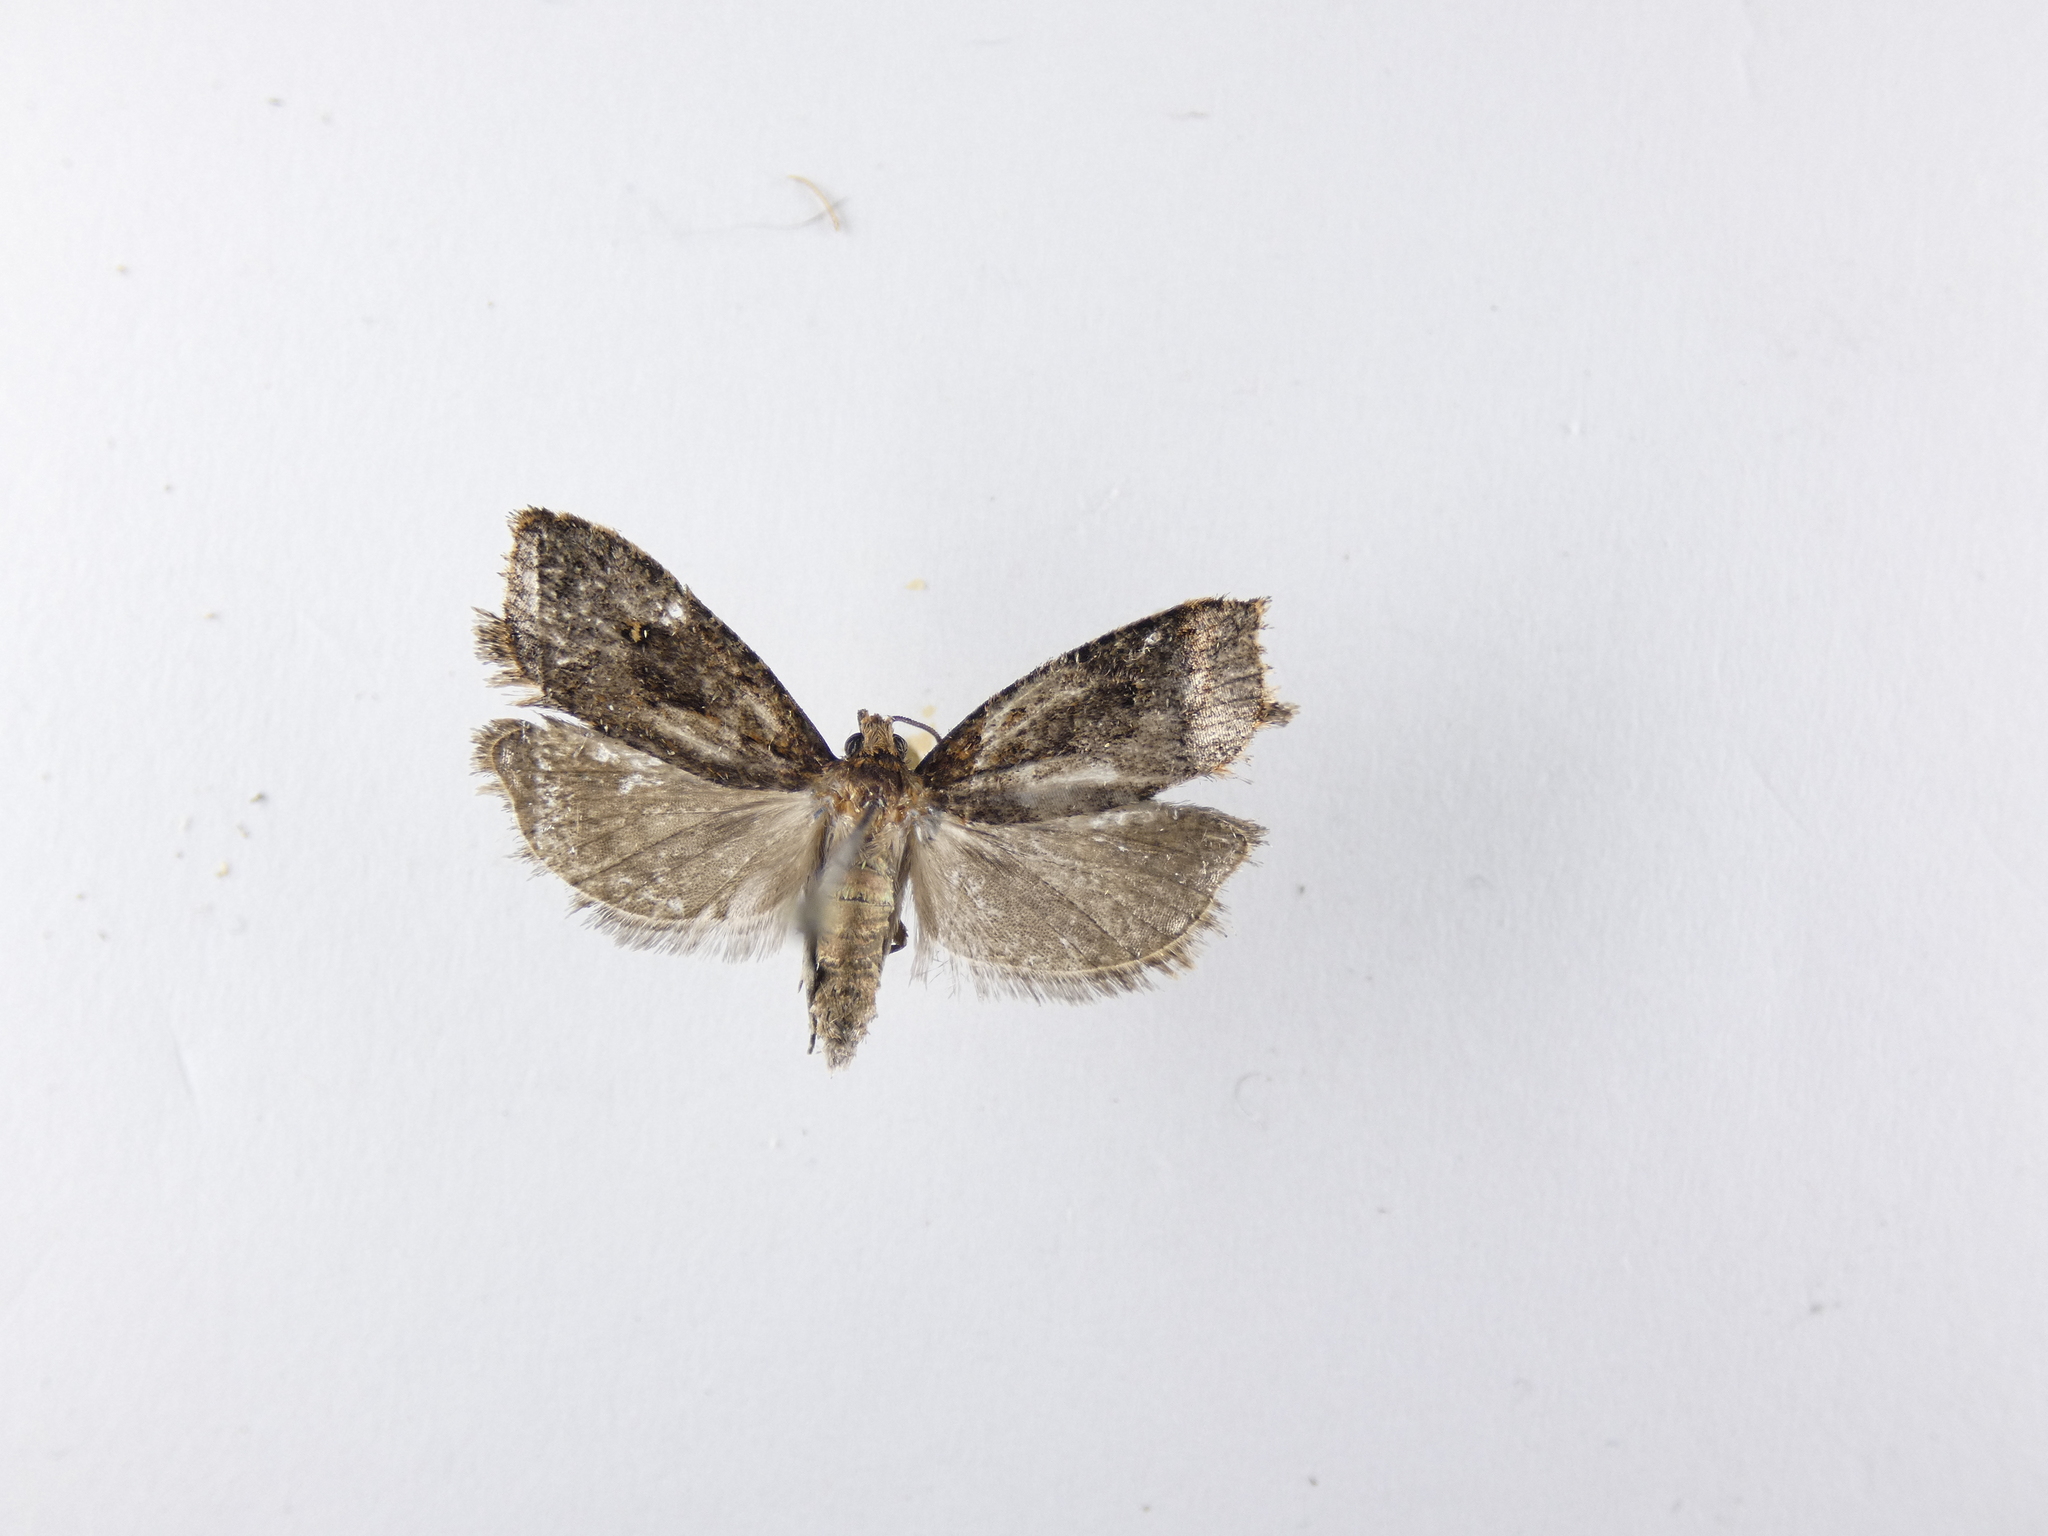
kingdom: Animalia
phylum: Arthropoda
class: Insecta
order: Lepidoptera
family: Tortricidae
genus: Cryptaspasma
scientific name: Cryptaspasma querula
